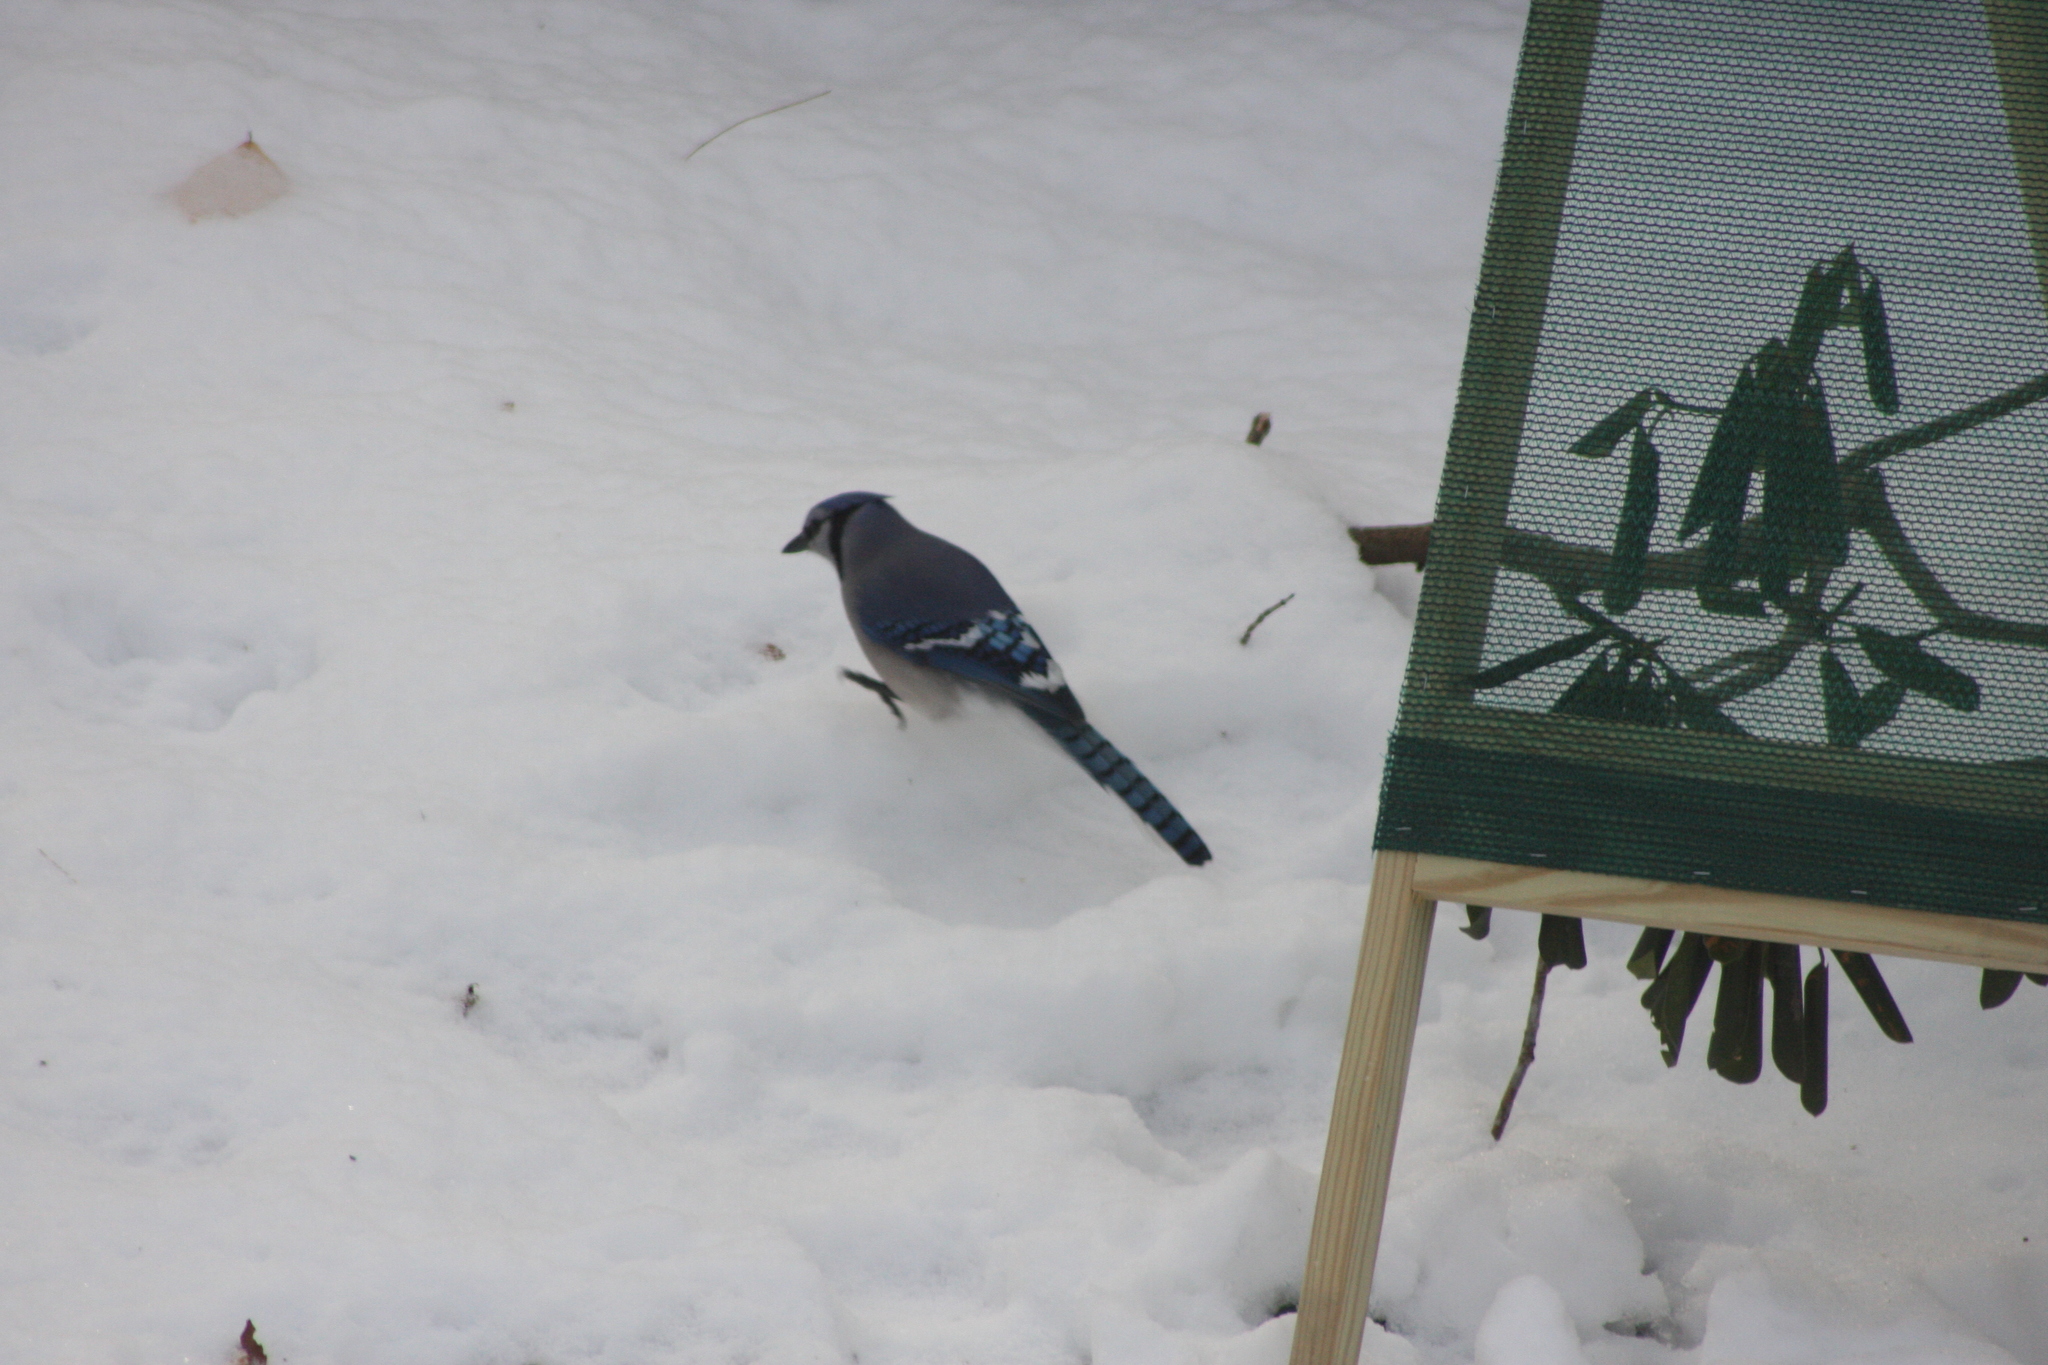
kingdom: Animalia
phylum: Chordata
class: Aves
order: Passeriformes
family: Corvidae
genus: Cyanocitta
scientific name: Cyanocitta cristata
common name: Blue jay
